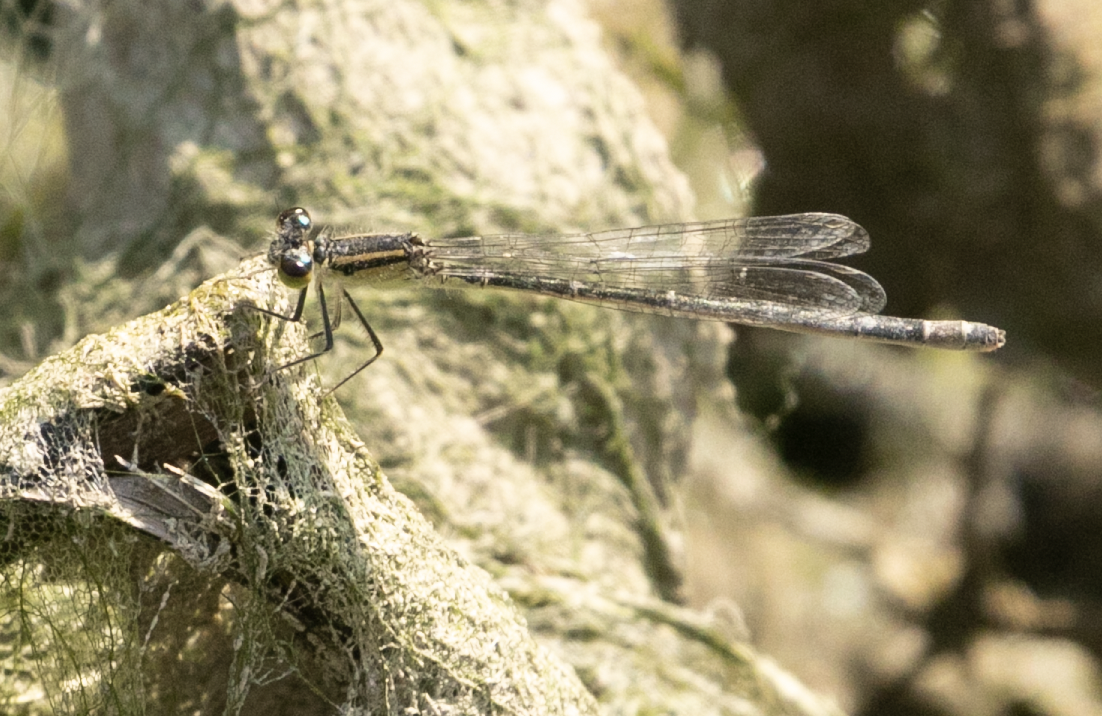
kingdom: Animalia
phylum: Arthropoda
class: Insecta
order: Odonata
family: Coenagrionidae
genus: Ischnura
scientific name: Ischnura elegans
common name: Blue-tailed damselfly
